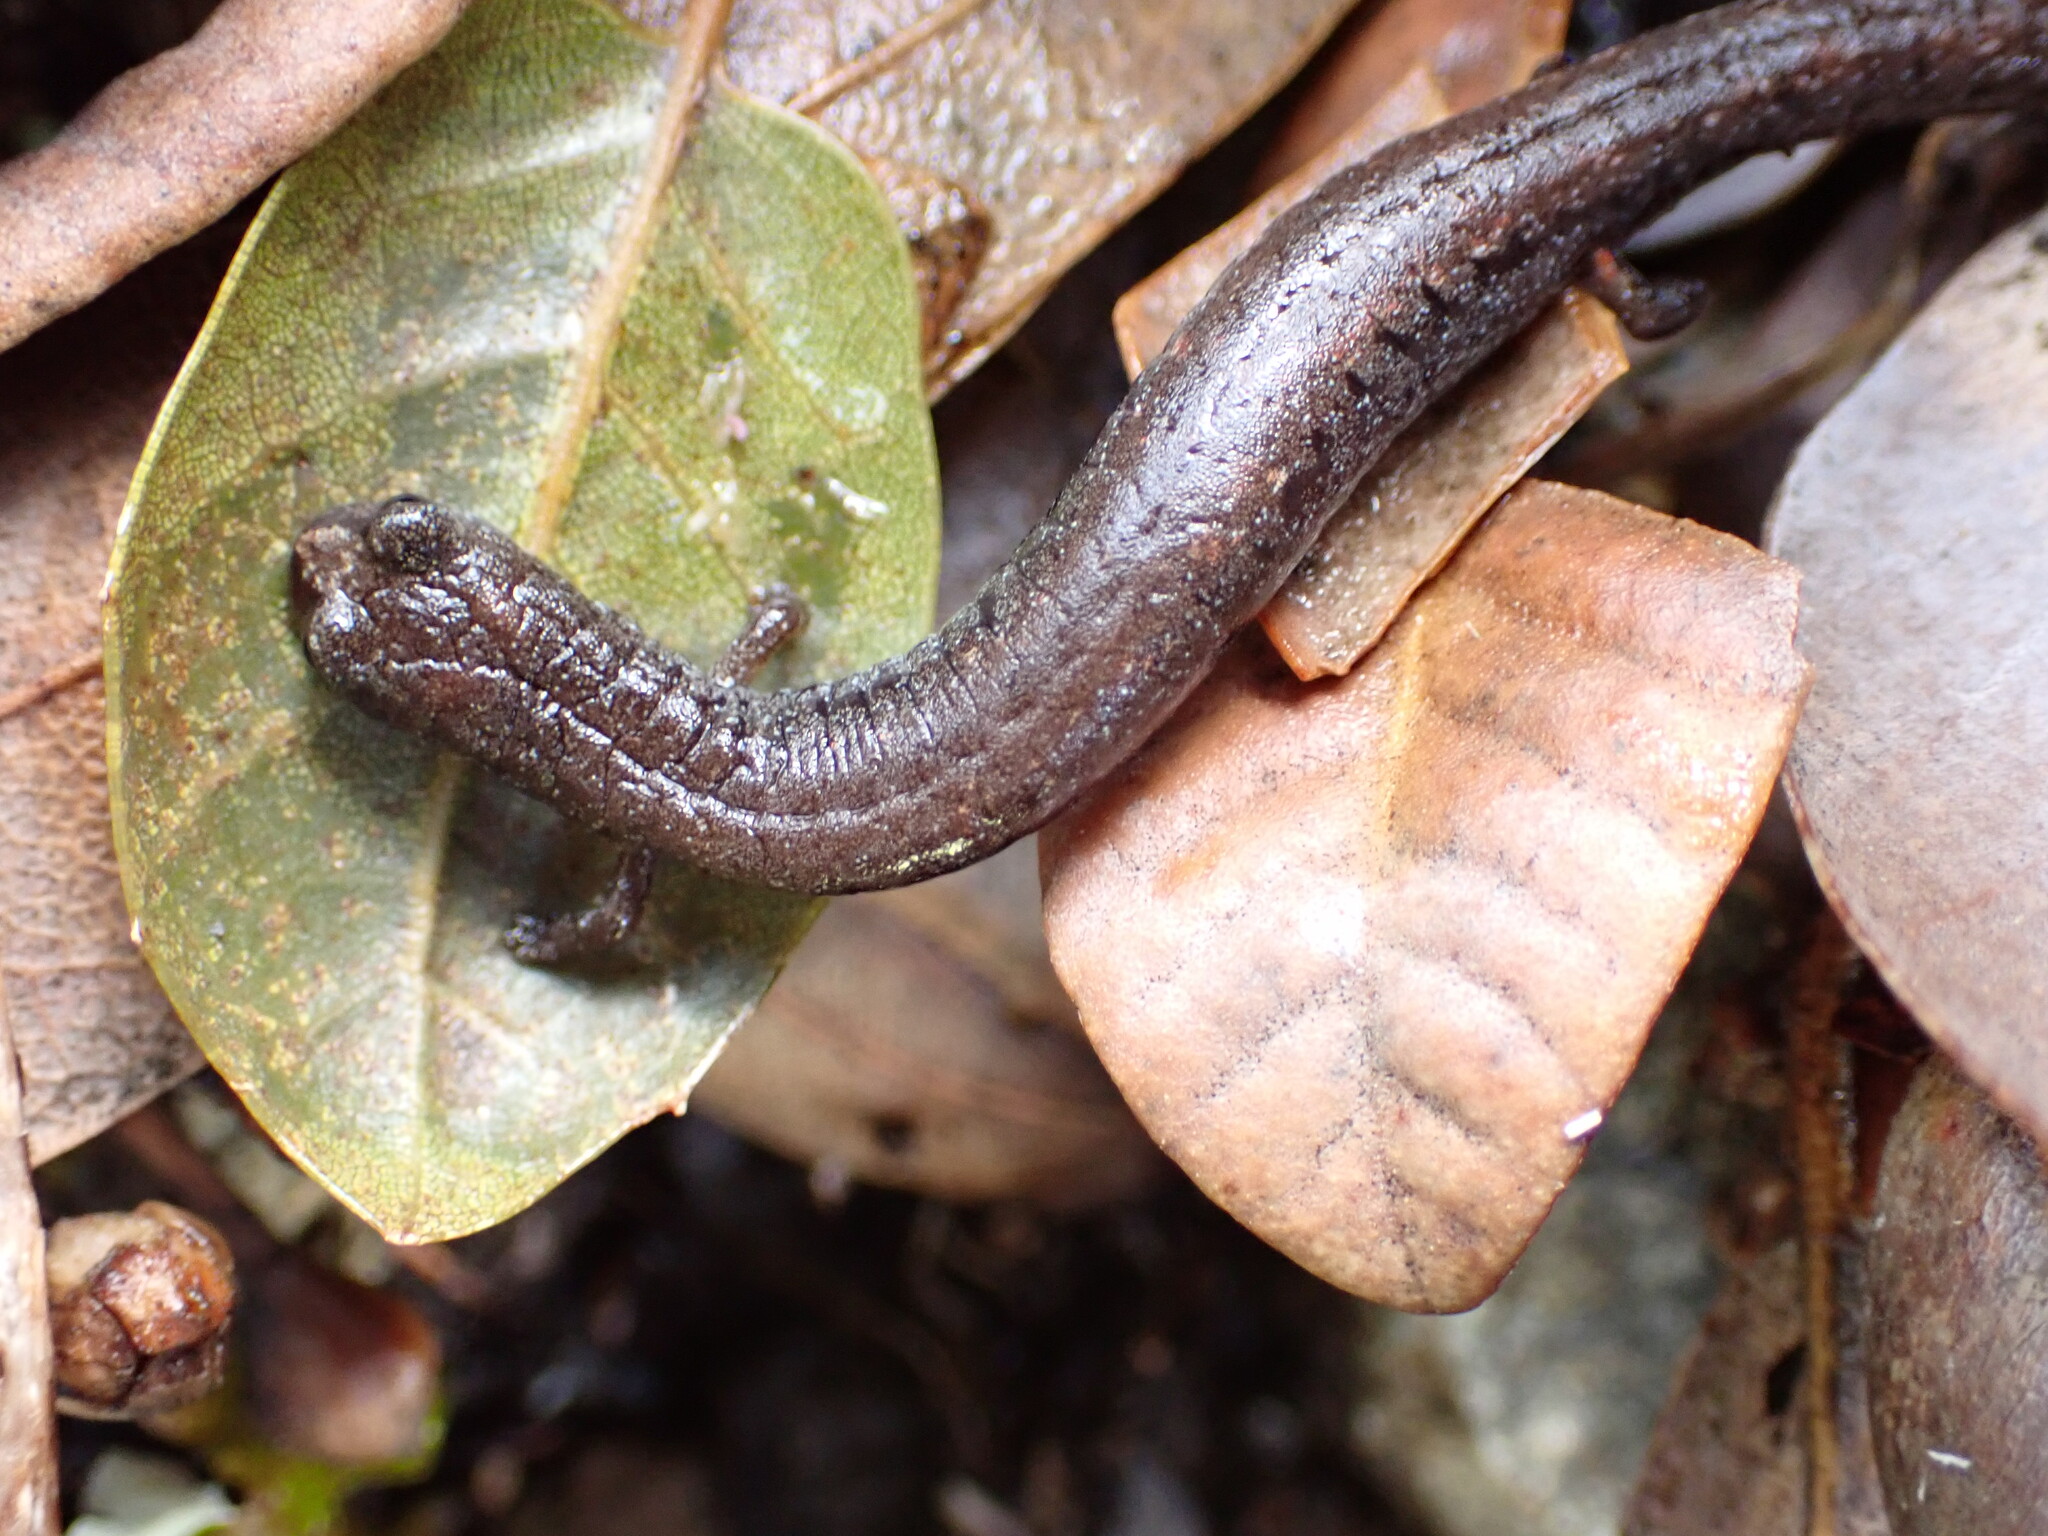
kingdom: Animalia
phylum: Chordata
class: Amphibia
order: Caudata
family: Plethodontidae
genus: Batrachoseps
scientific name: Batrachoseps attenuatus
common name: California slender salamander
